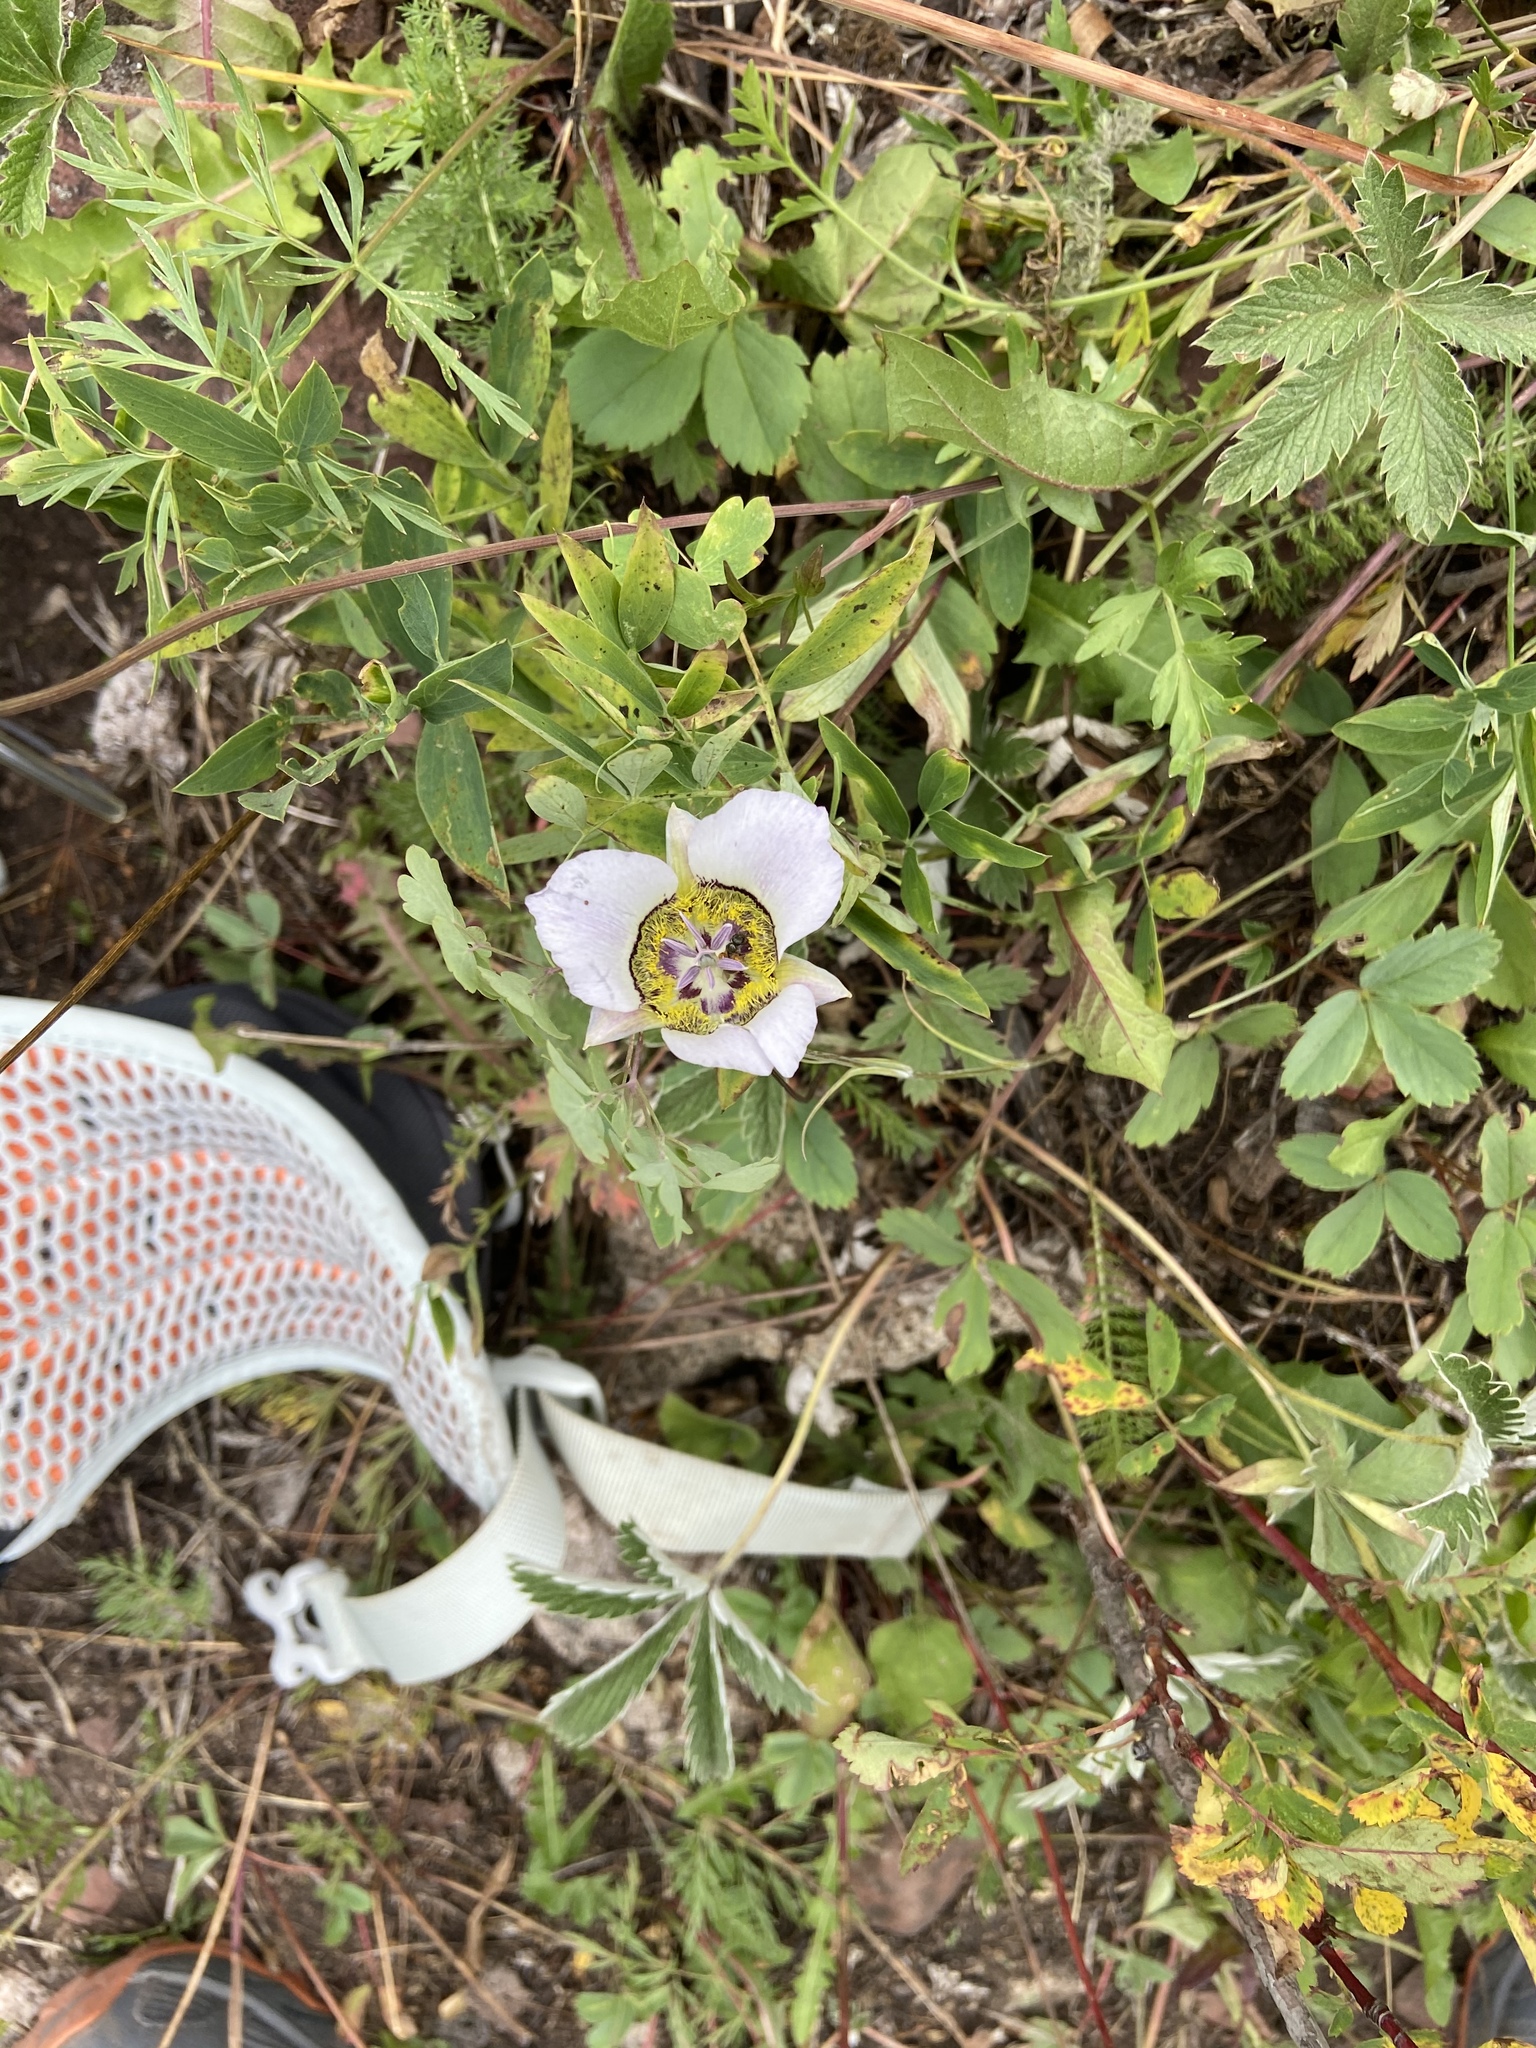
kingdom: Plantae
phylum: Tracheophyta
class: Liliopsida
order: Liliales
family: Liliaceae
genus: Calochortus
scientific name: Calochortus gunnisonii
